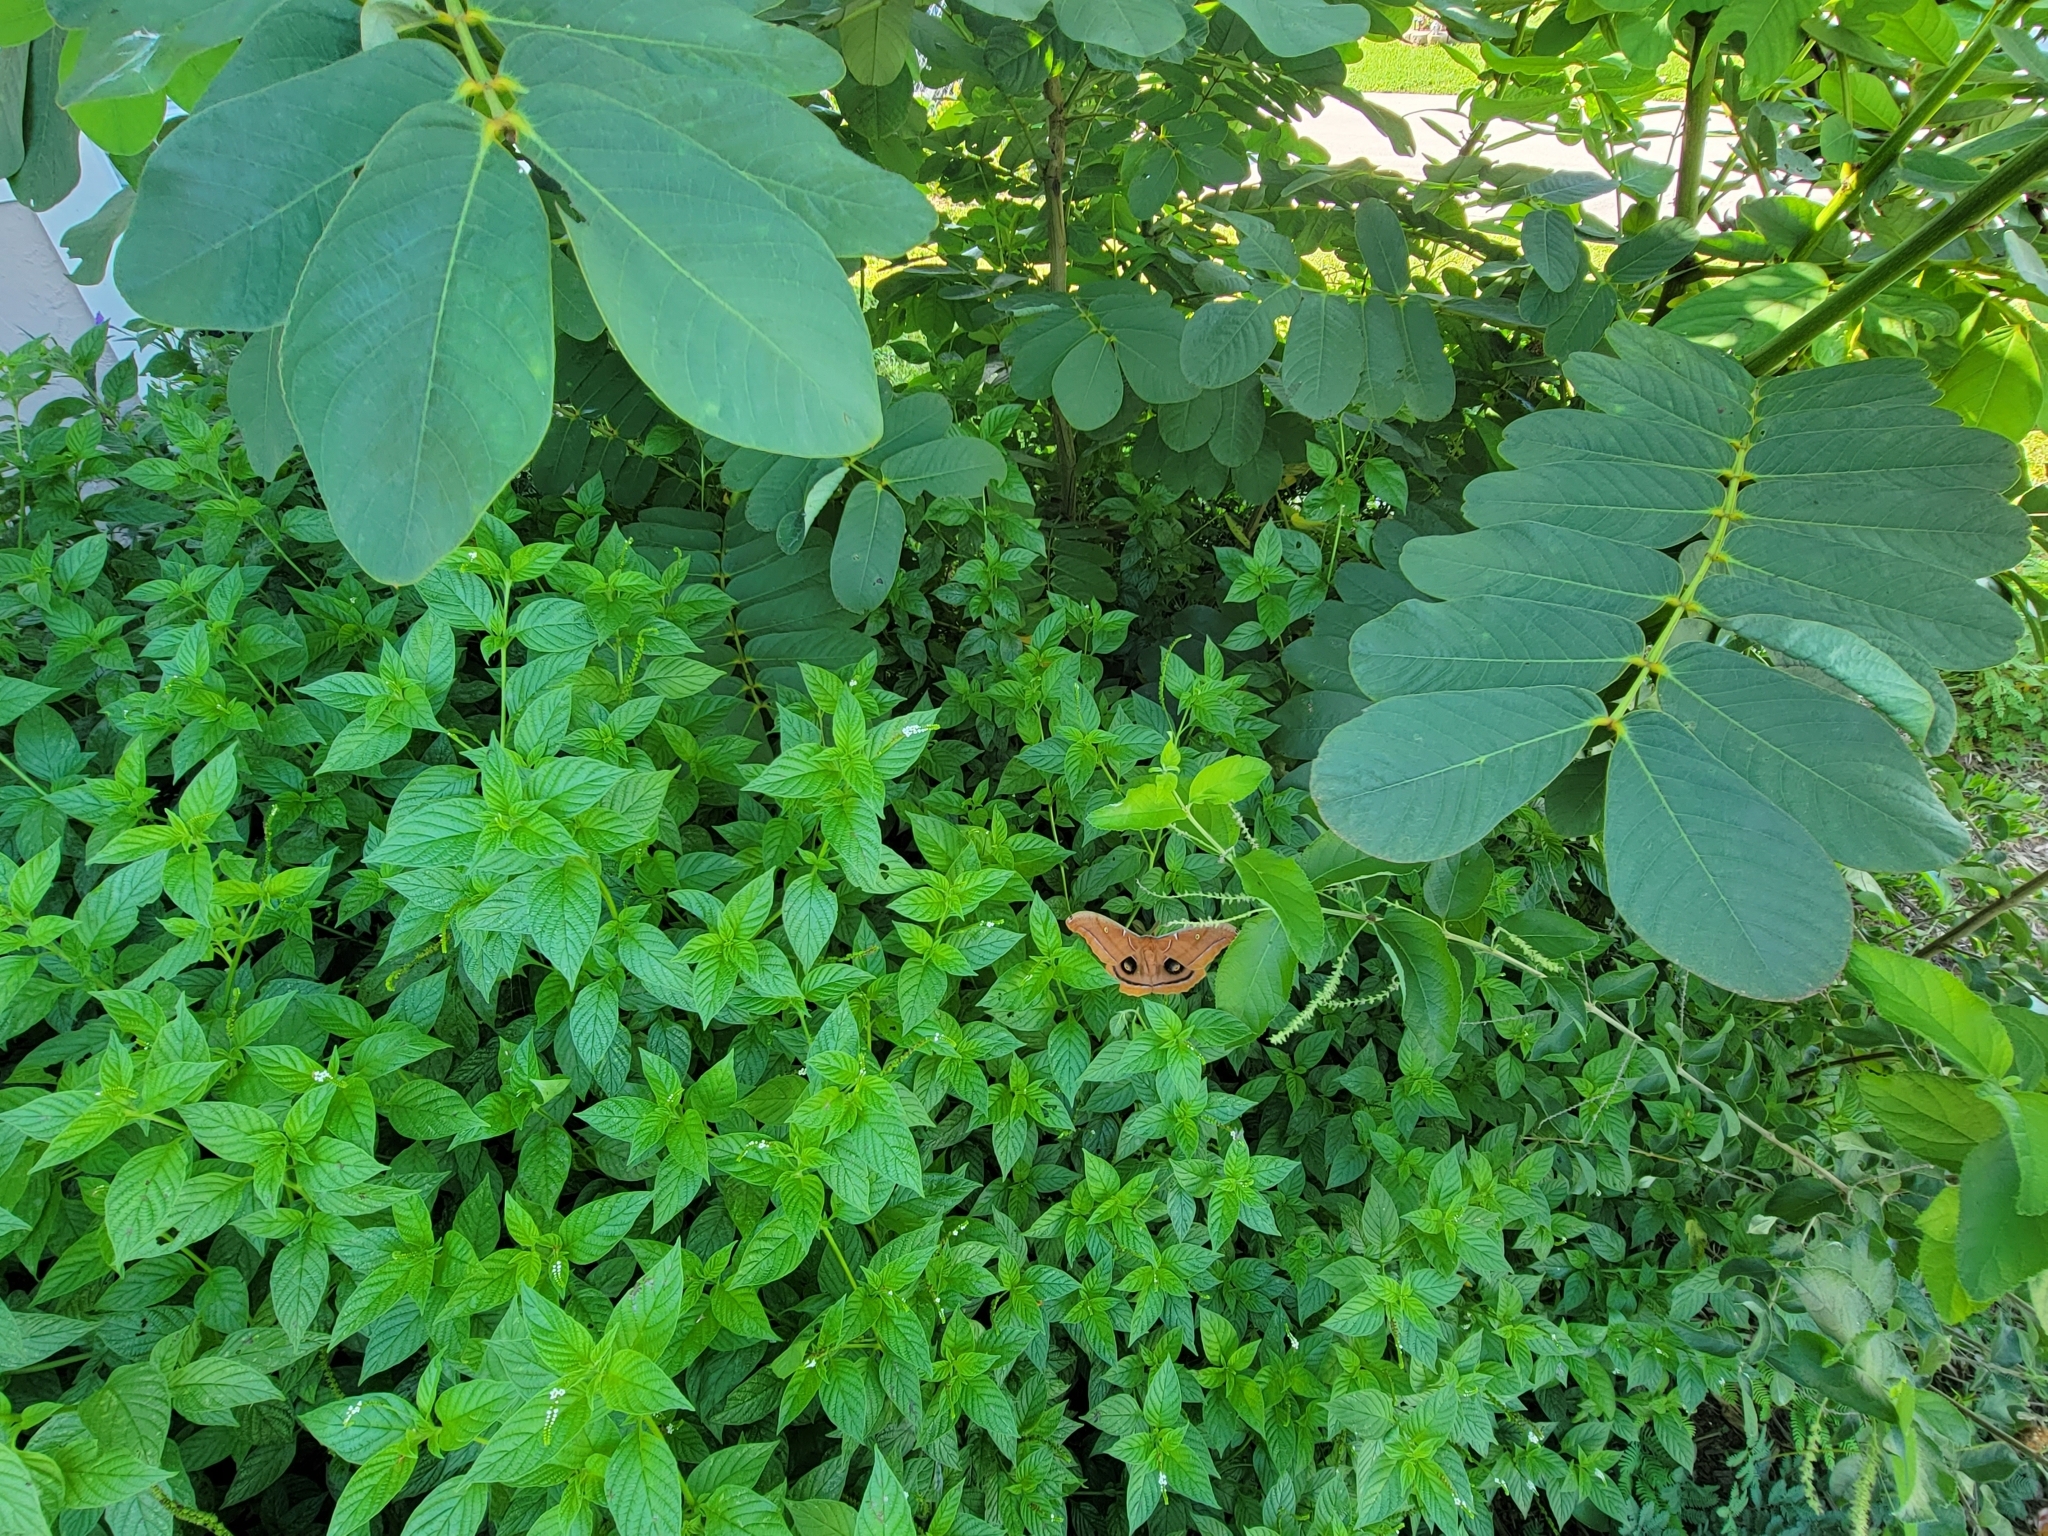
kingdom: Animalia
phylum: Arthropoda
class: Insecta
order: Lepidoptera
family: Saturniidae
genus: Antheraea
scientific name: Antheraea polyphemus
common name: Polyphemus moth
